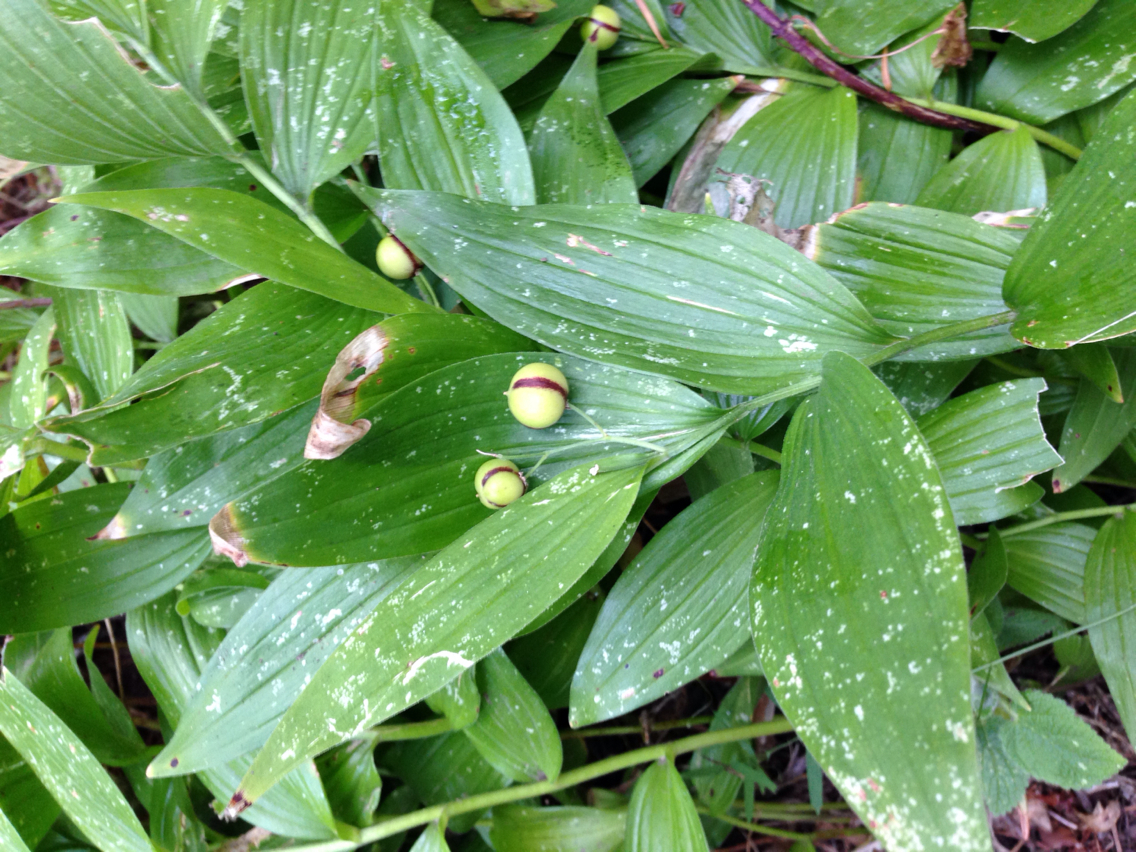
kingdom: Plantae
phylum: Tracheophyta
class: Liliopsida
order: Asparagales
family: Asparagaceae
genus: Maianthemum
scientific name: Maianthemum stellatum
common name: Little false solomon's seal
